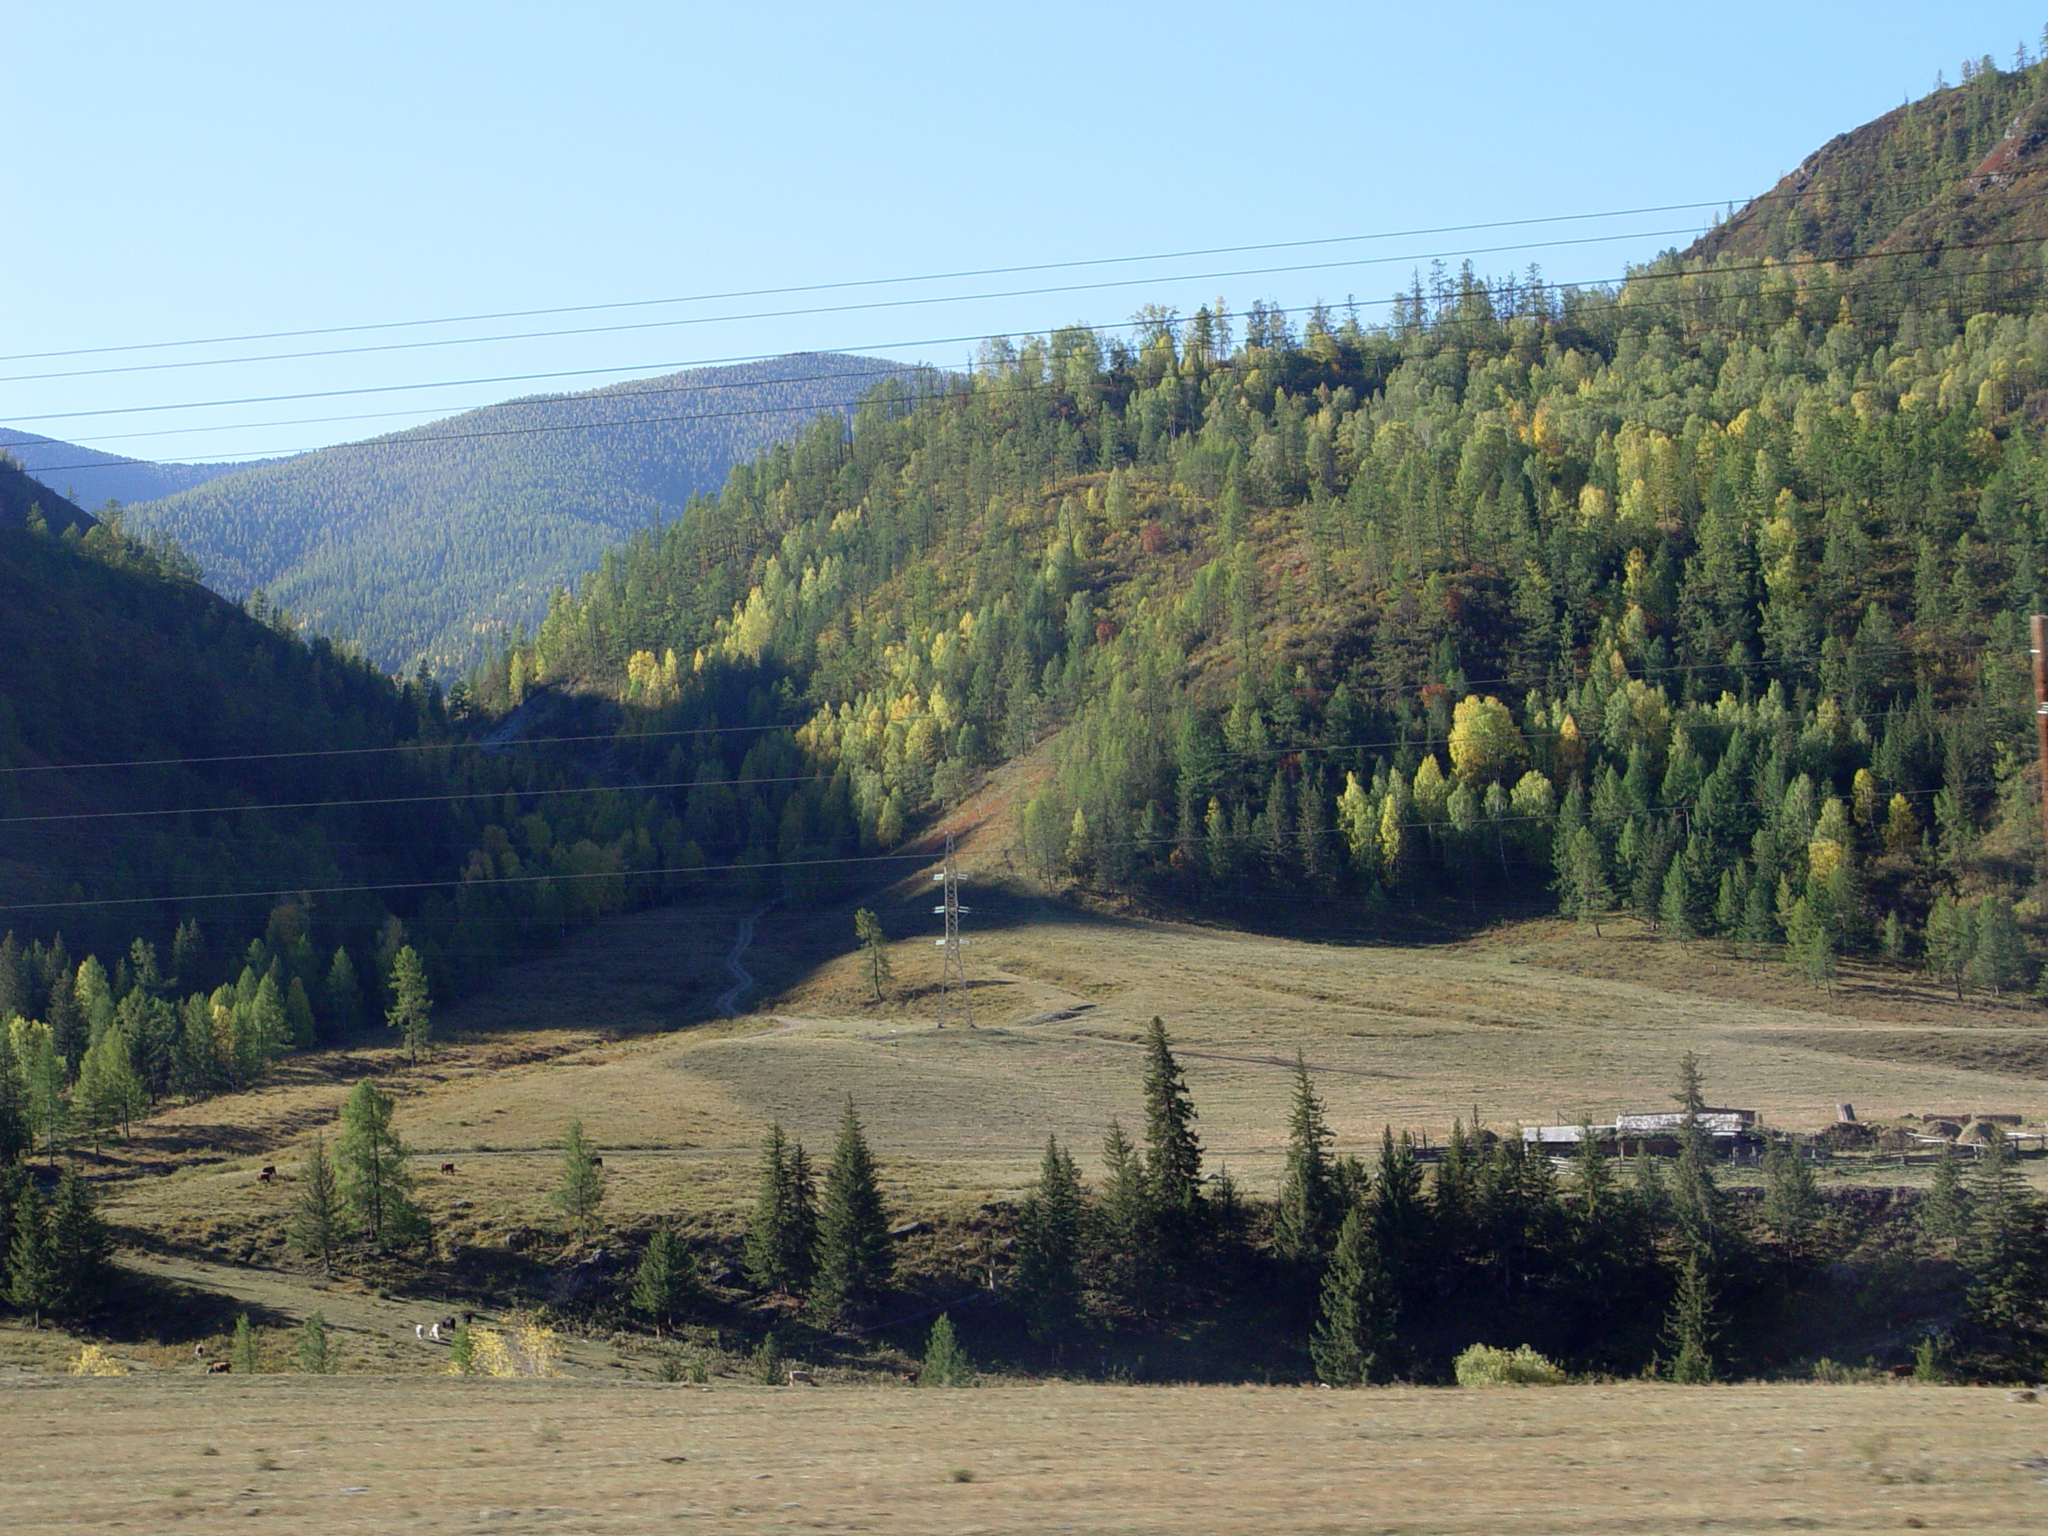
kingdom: Plantae
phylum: Tracheophyta
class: Pinopsida
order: Pinales
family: Pinaceae
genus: Picea
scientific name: Picea obovata
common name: Siberian spruce
